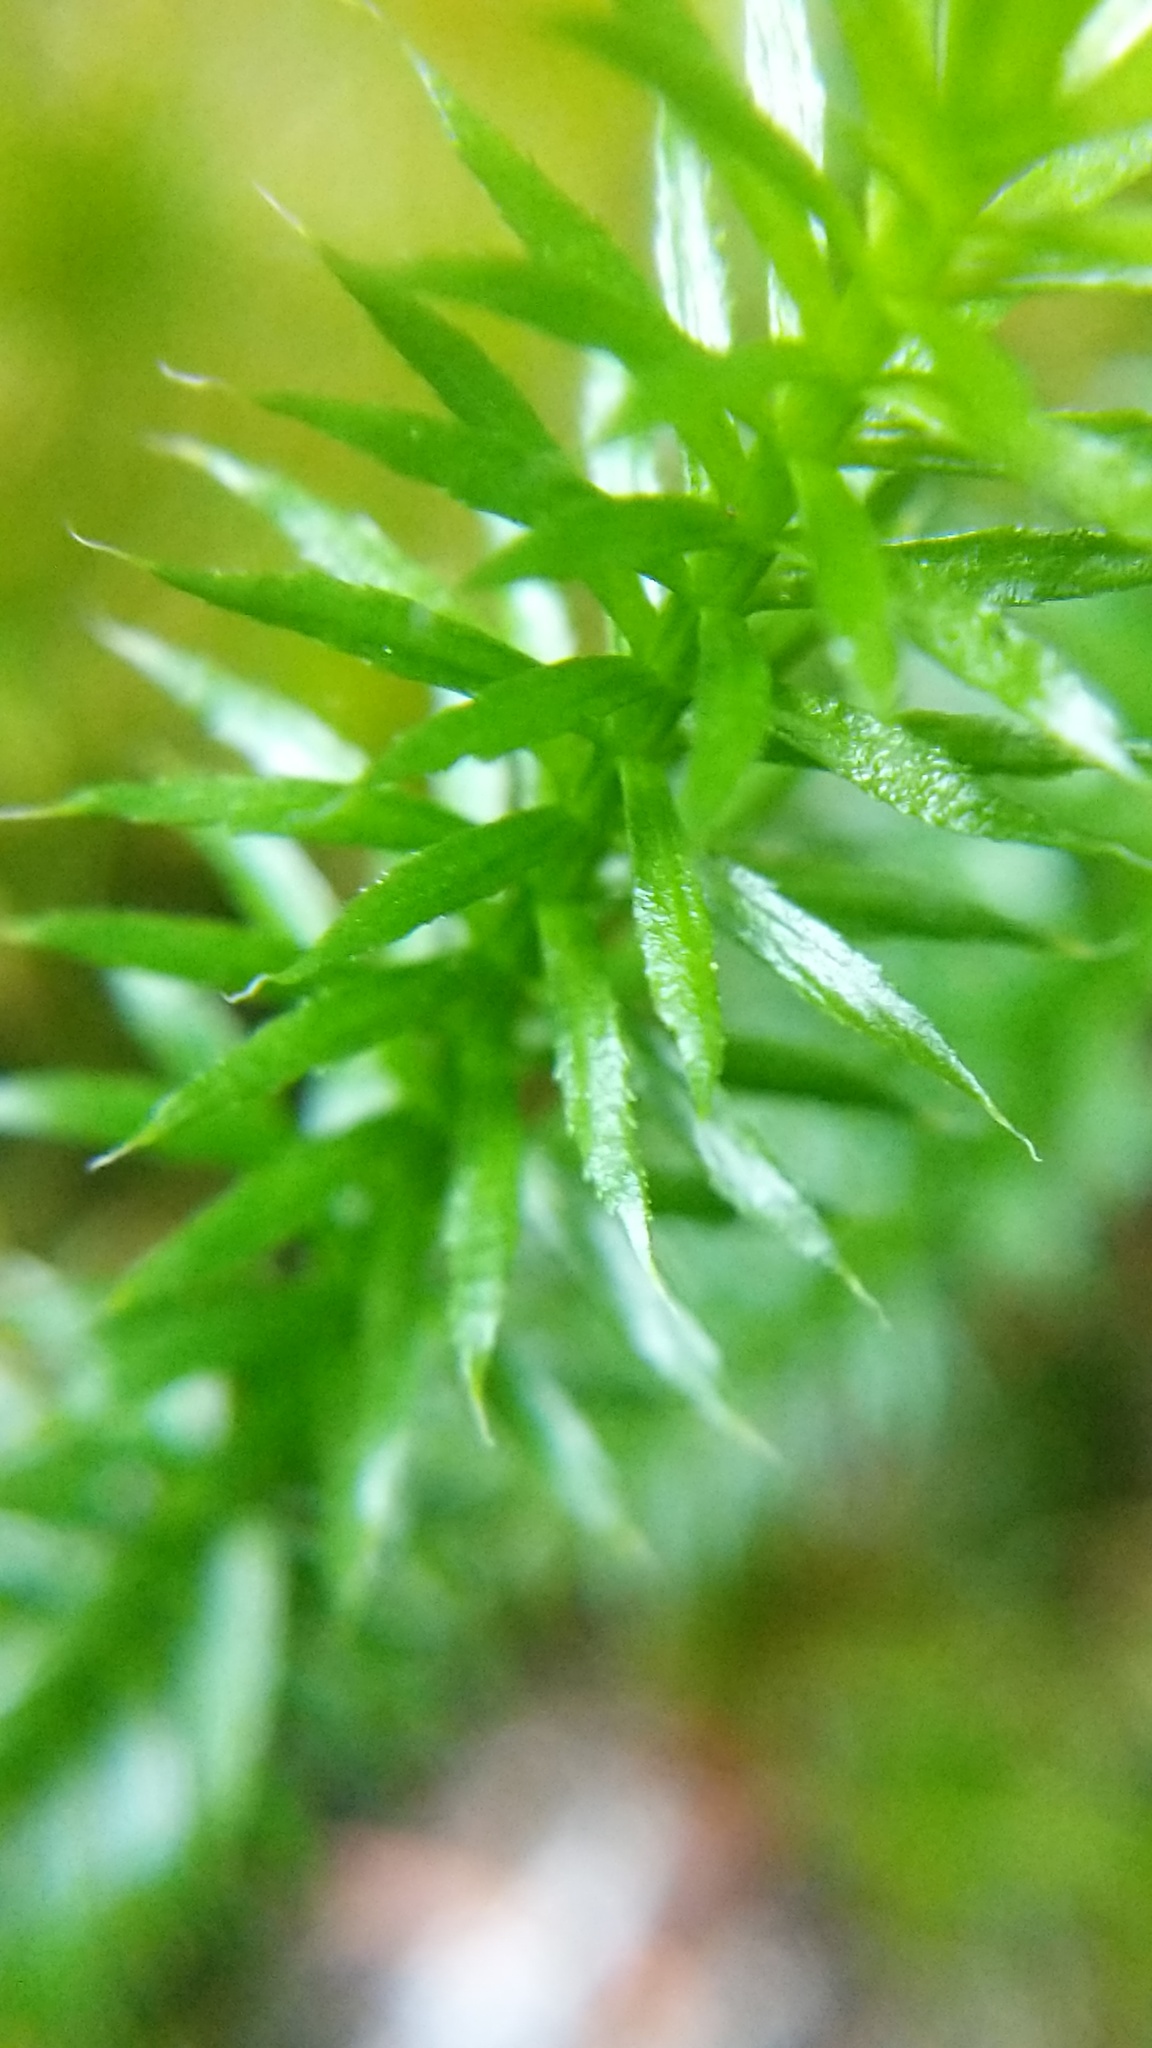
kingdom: Plantae
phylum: Tracheophyta
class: Lycopodiopsida
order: Lycopodiales
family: Lycopodiaceae
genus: Spinulum
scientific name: Spinulum annotinum
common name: Interrupted club-moss
